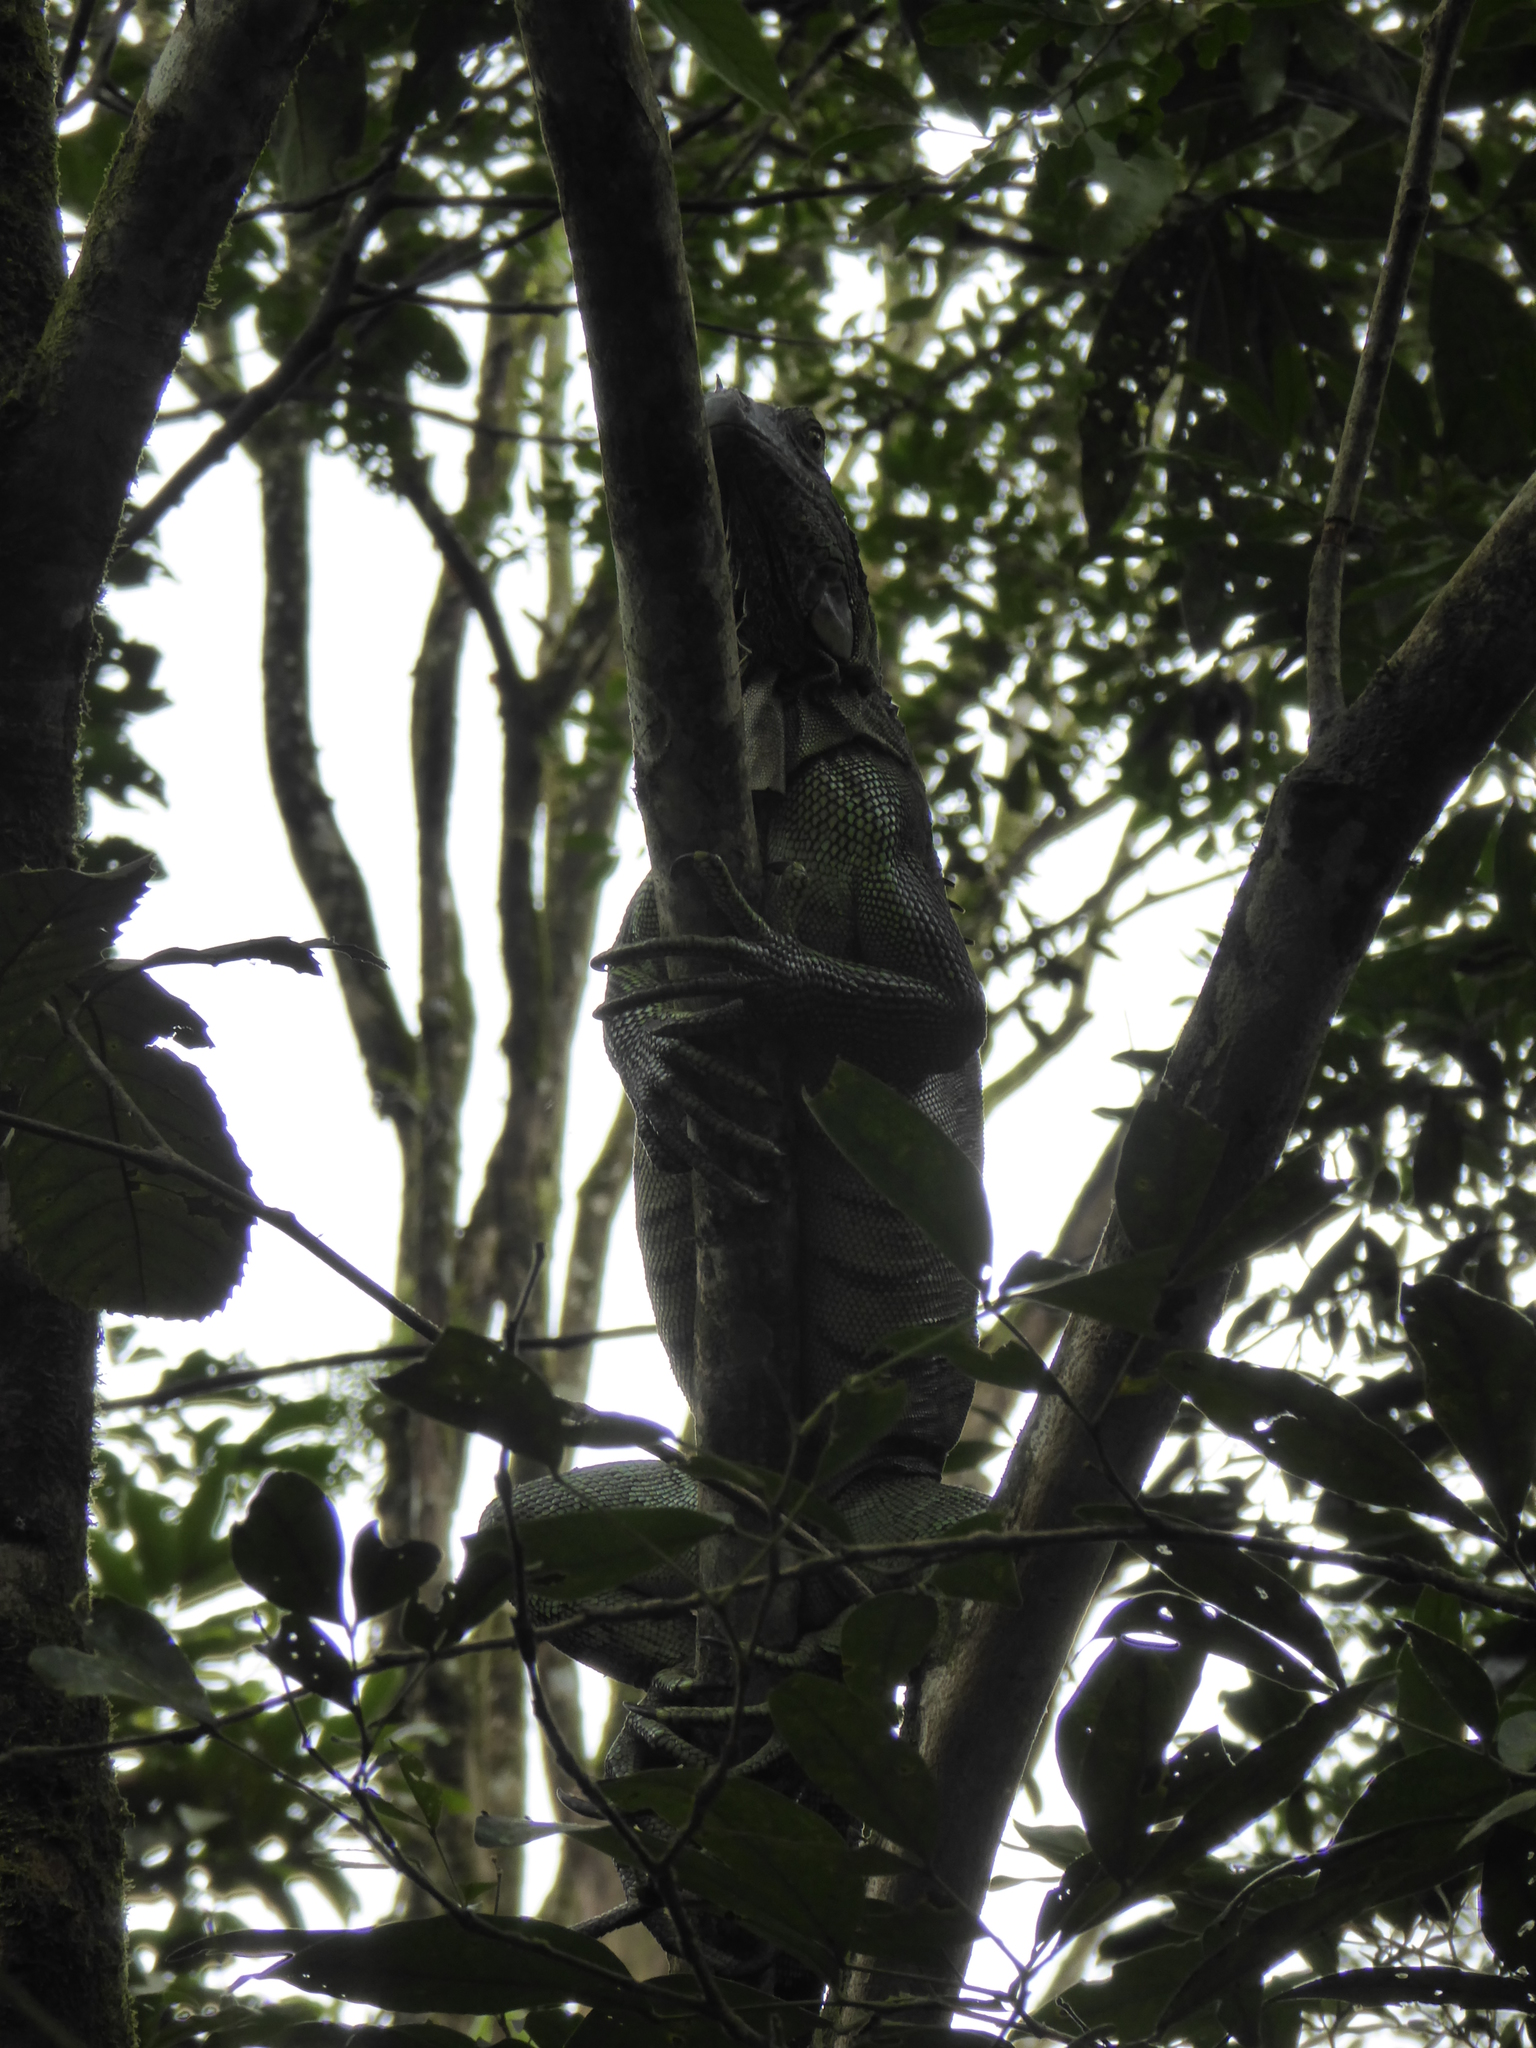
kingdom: Animalia
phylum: Chordata
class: Squamata
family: Iguanidae
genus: Iguana
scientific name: Iguana iguana
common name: Green iguana
